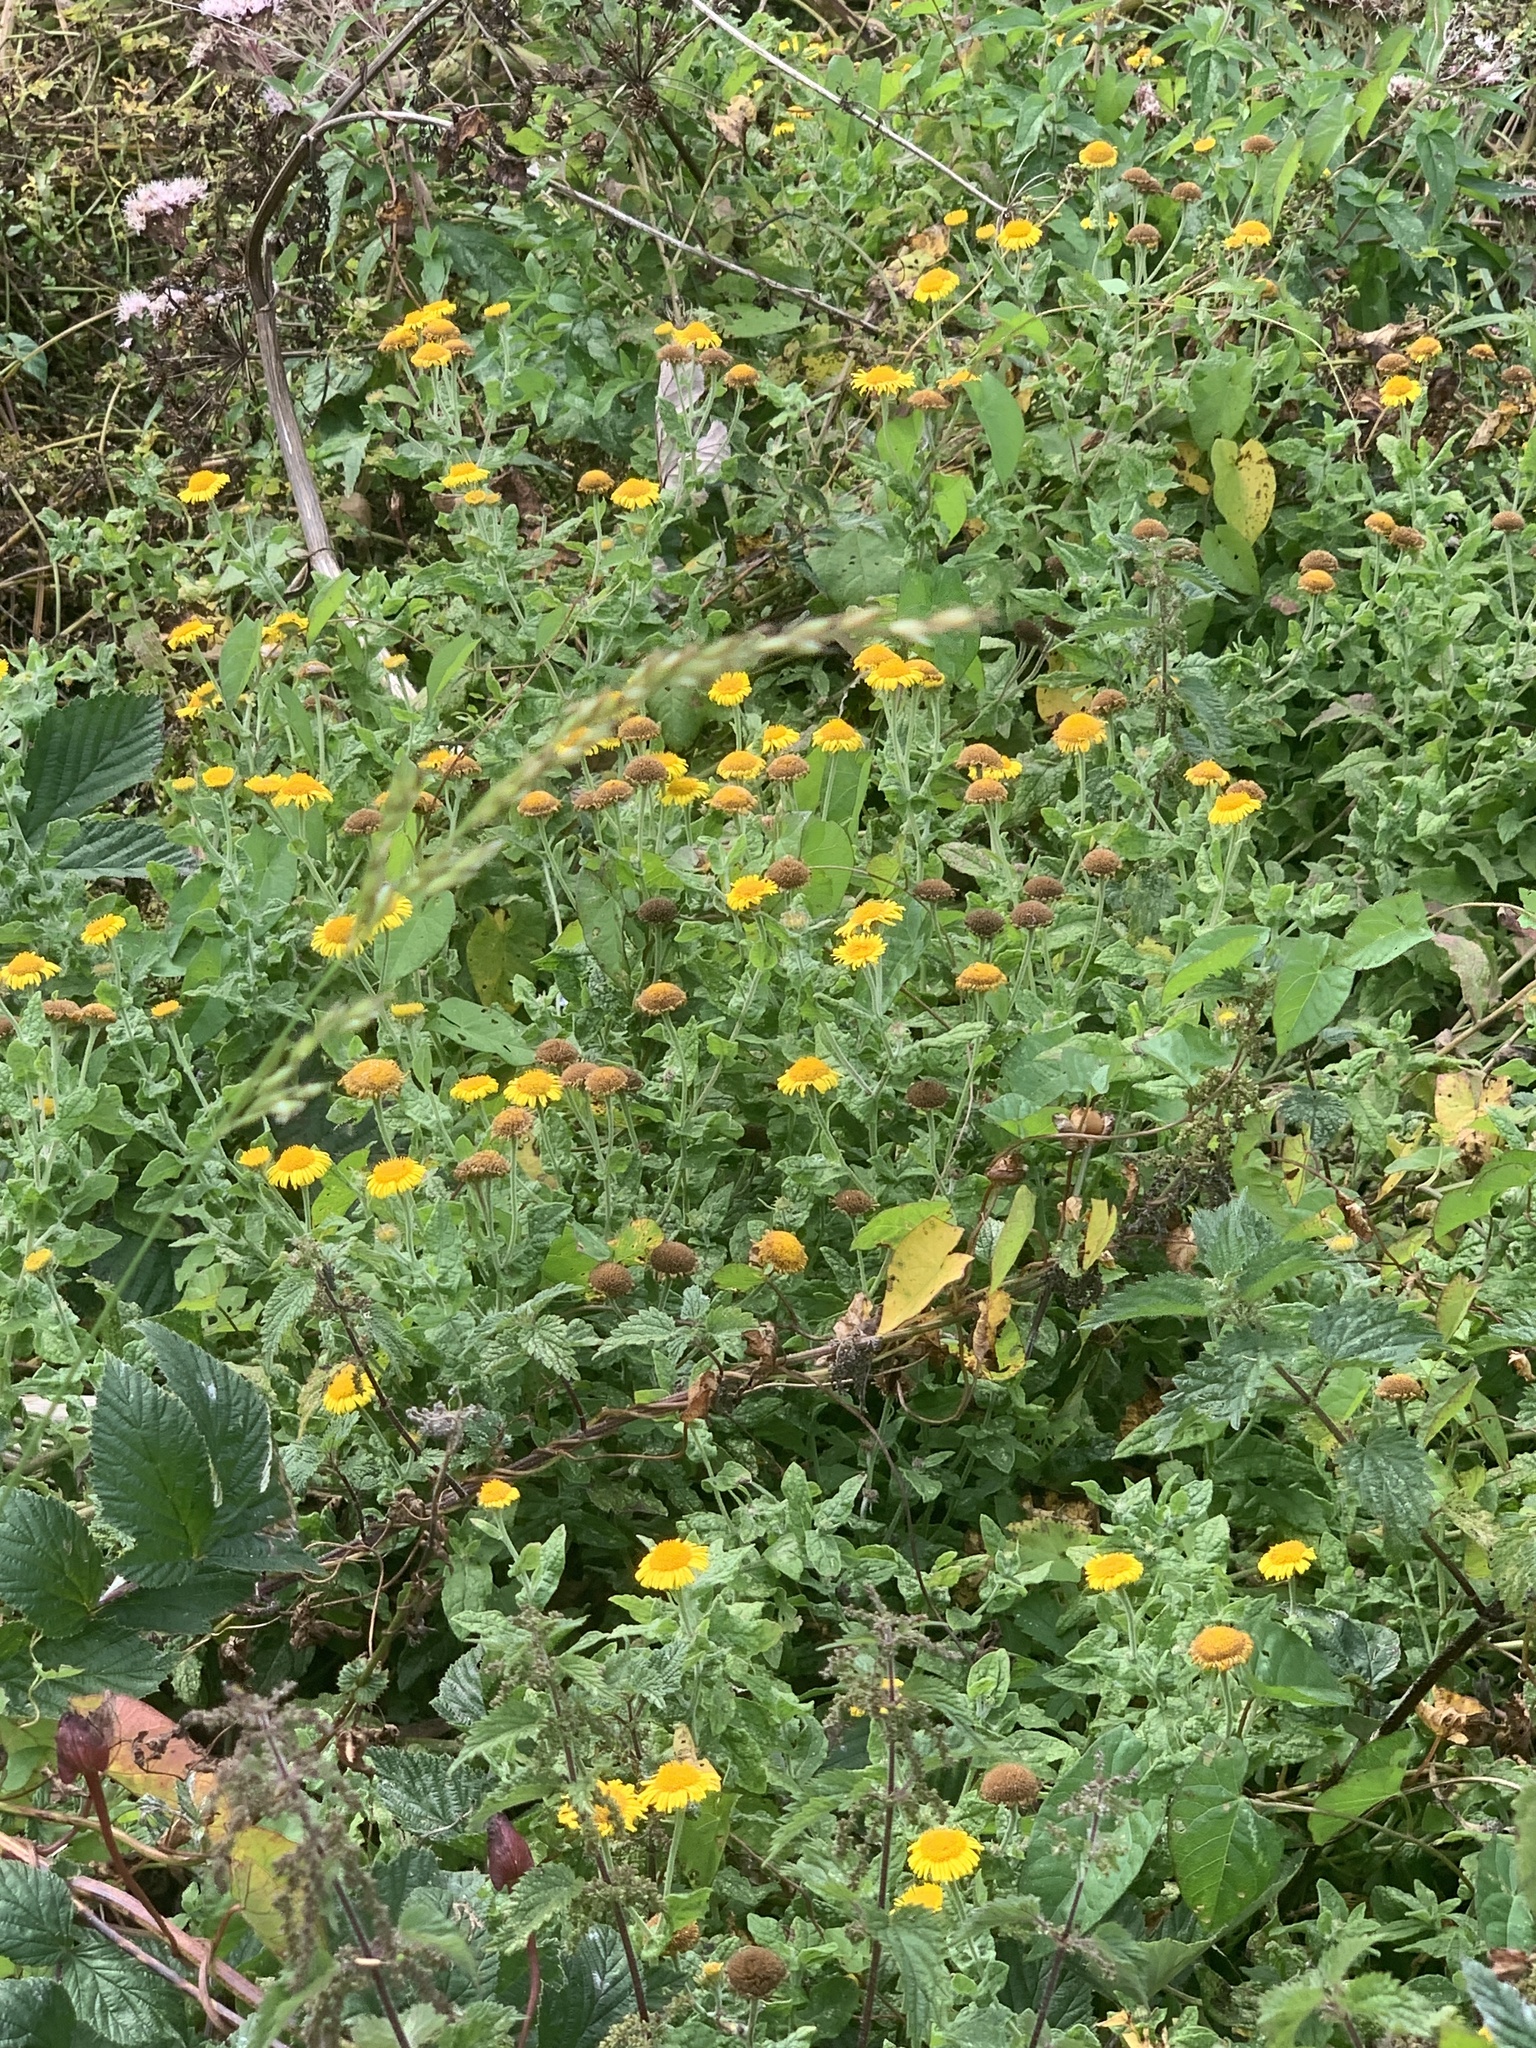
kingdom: Plantae
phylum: Tracheophyta
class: Magnoliopsida
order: Asterales
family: Asteraceae
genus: Pulicaria
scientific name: Pulicaria dysenterica
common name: Common fleabane
